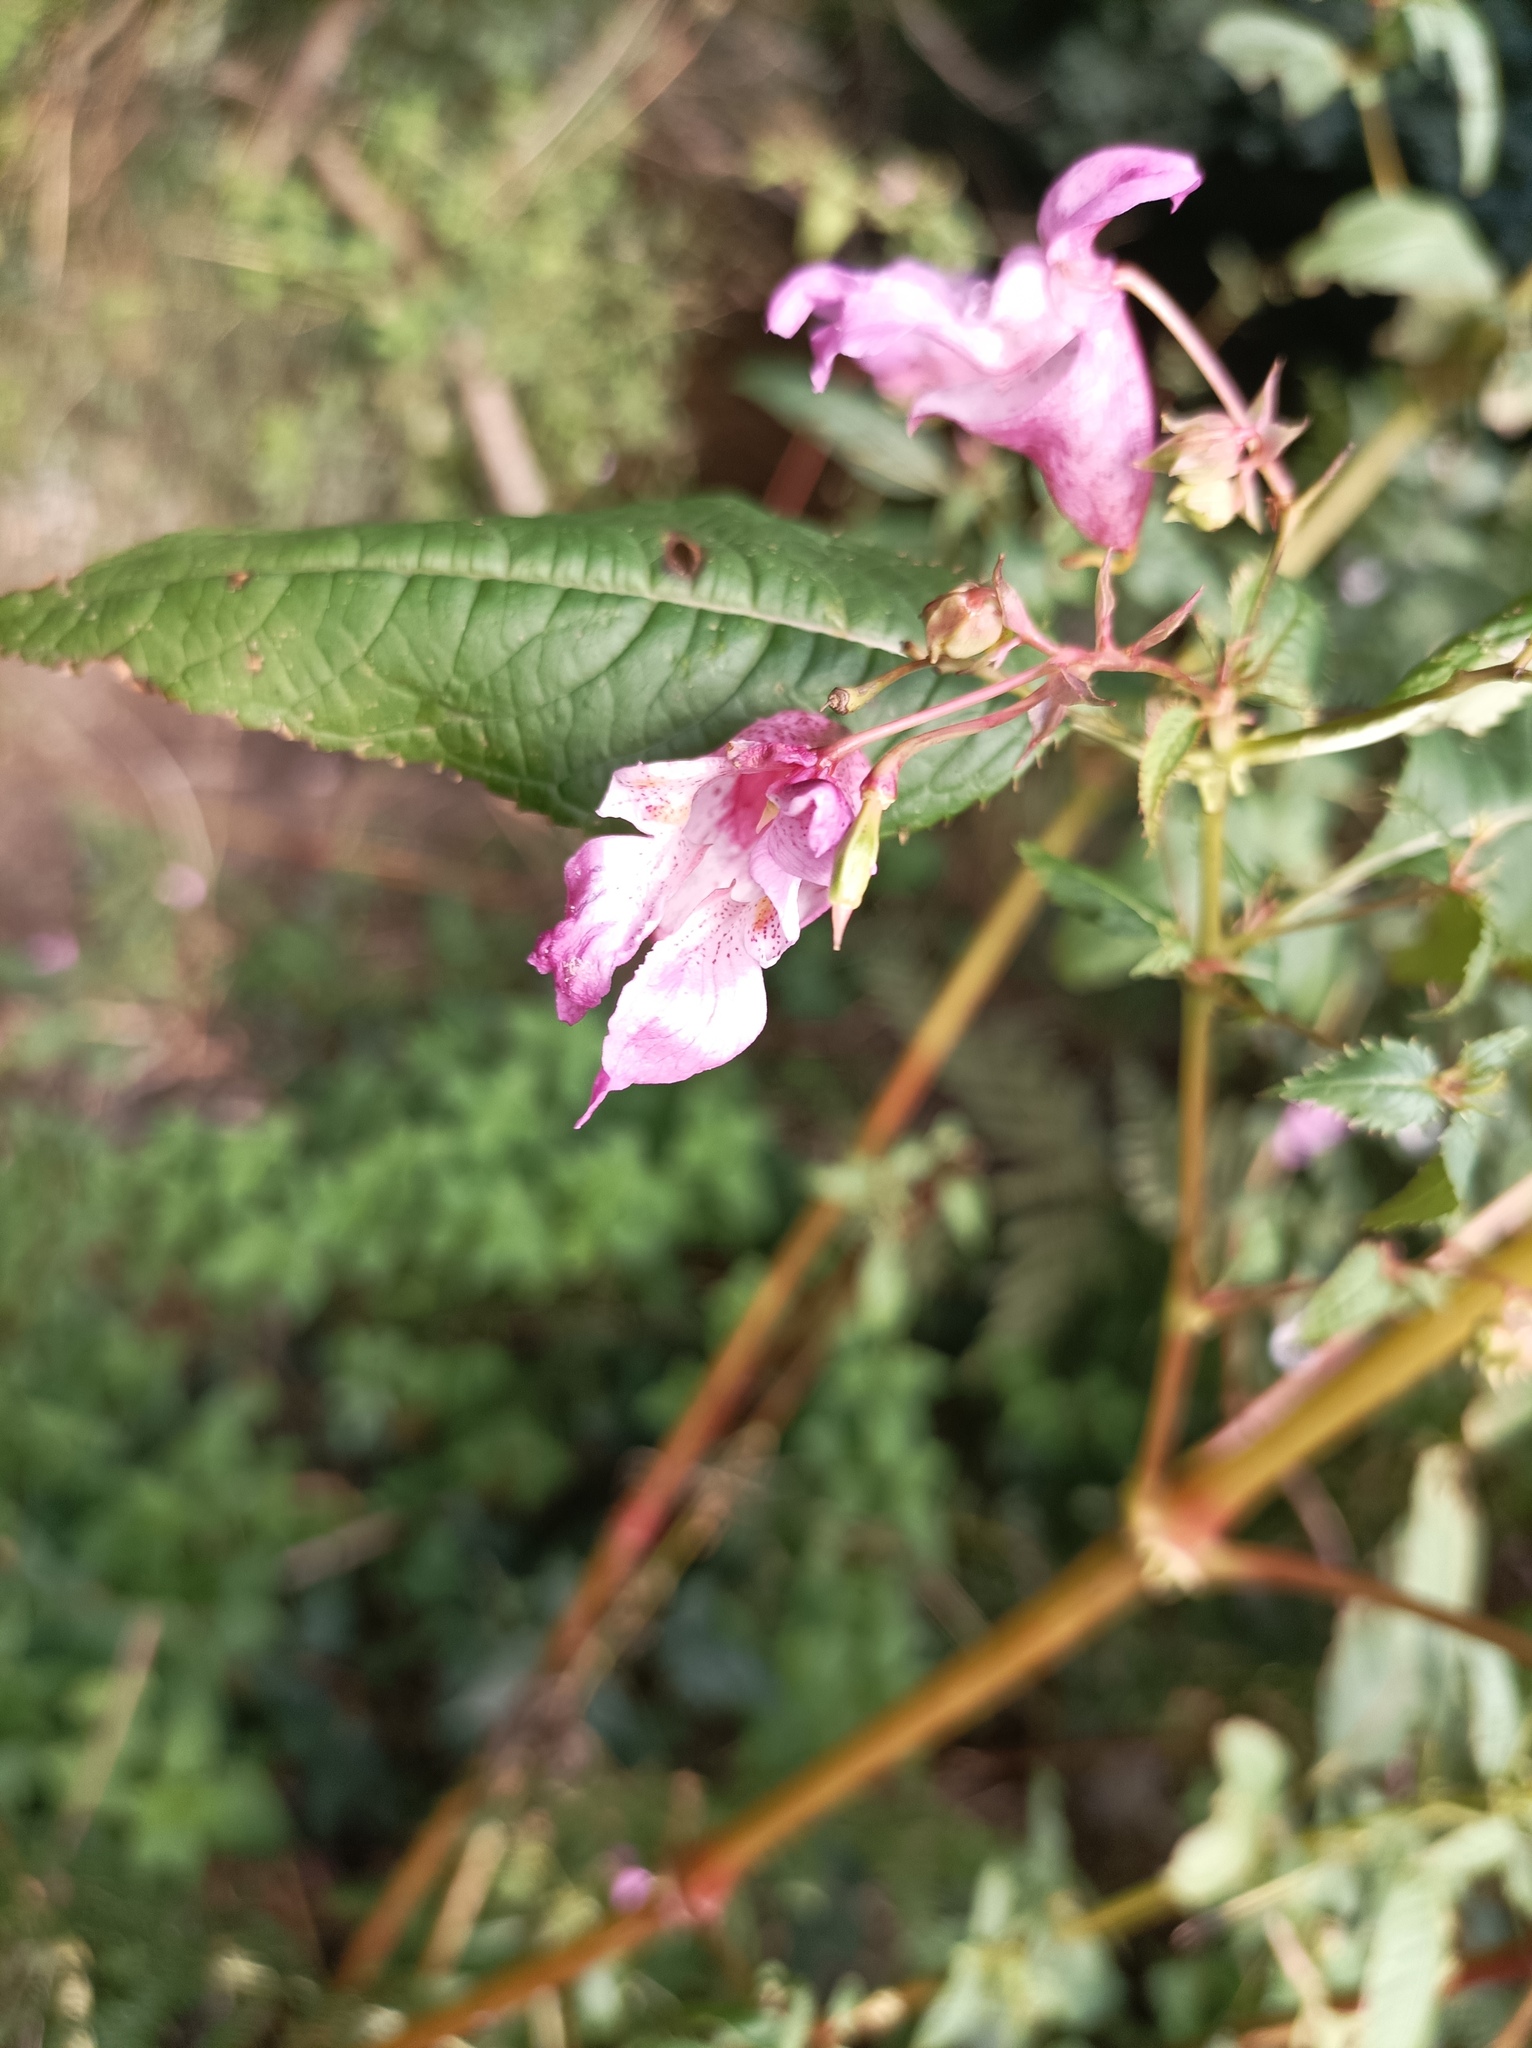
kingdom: Plantae
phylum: Tracheophyta
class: Magnoliopsida
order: Ericales
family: Balsaminaceae
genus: Impatiens
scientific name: Impatiens glandulifera
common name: Himalayan balsam
